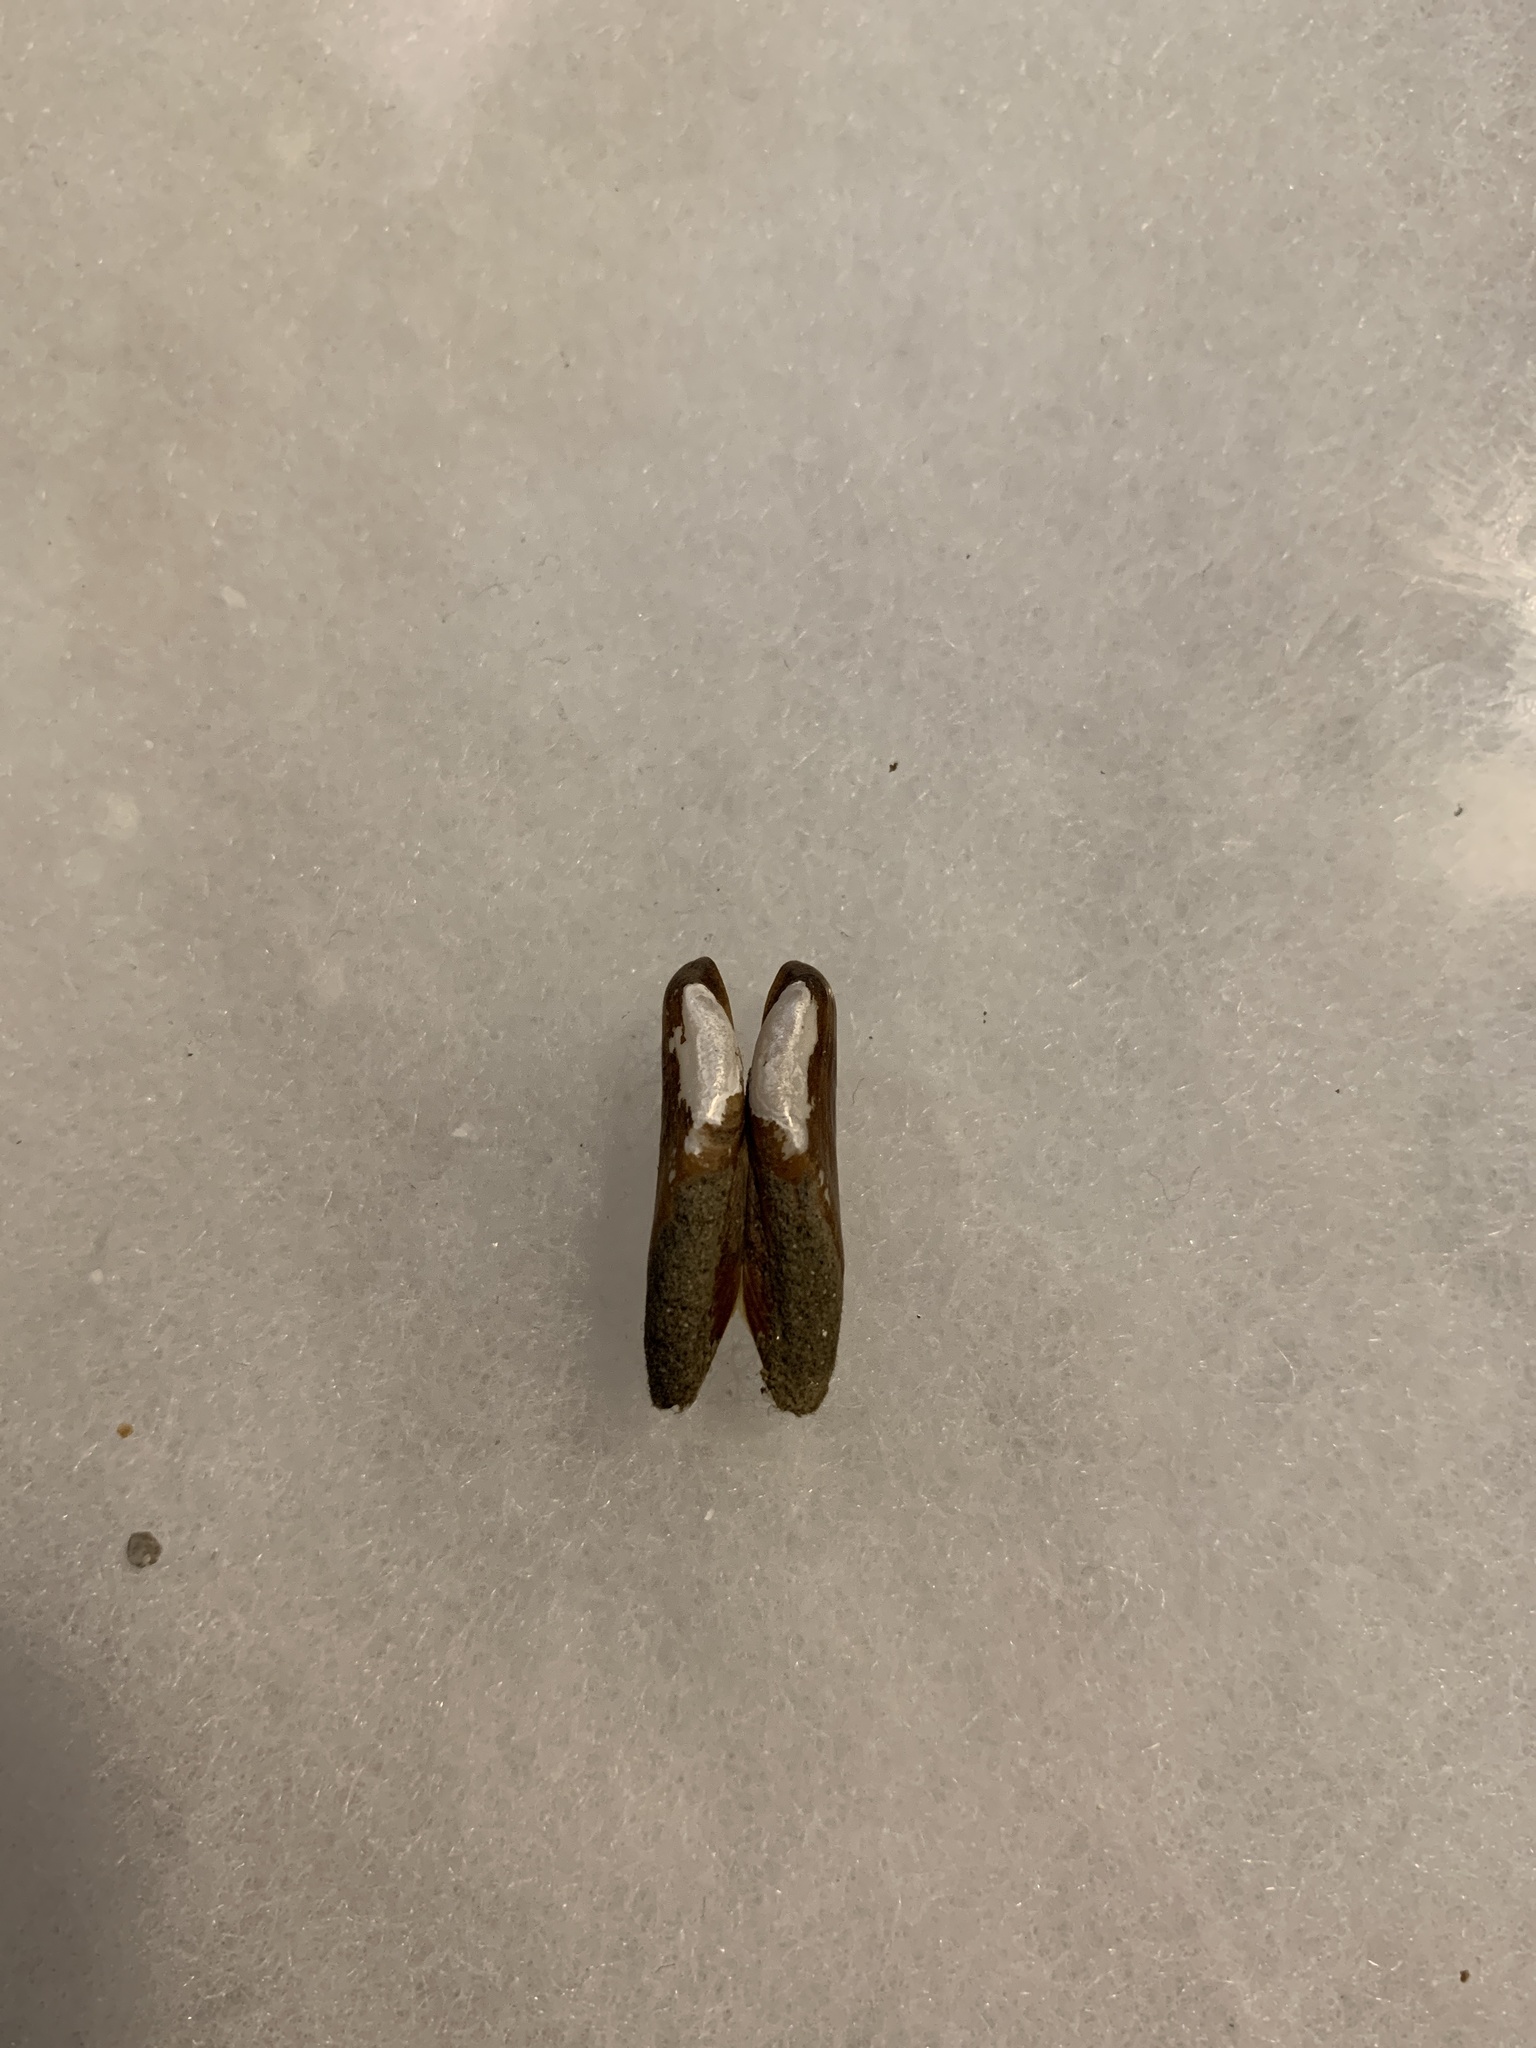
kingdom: Animalia
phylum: Mollusca
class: Bivalvia
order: Mytilida
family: Mytilidae
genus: Adula
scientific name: Adula gruneri
